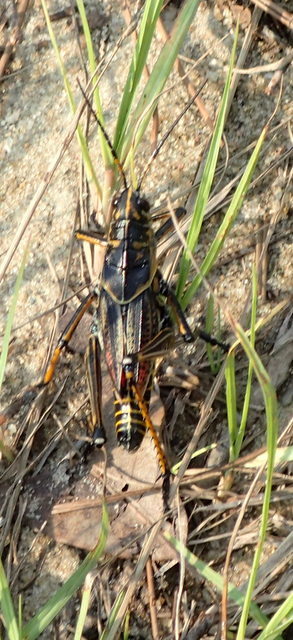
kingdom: Animalia
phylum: Arthropoda
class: Insecta
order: Orthoptera
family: Romaleidae
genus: Romalea
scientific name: Romalea microptera
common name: Eastern lubber grasshopper
